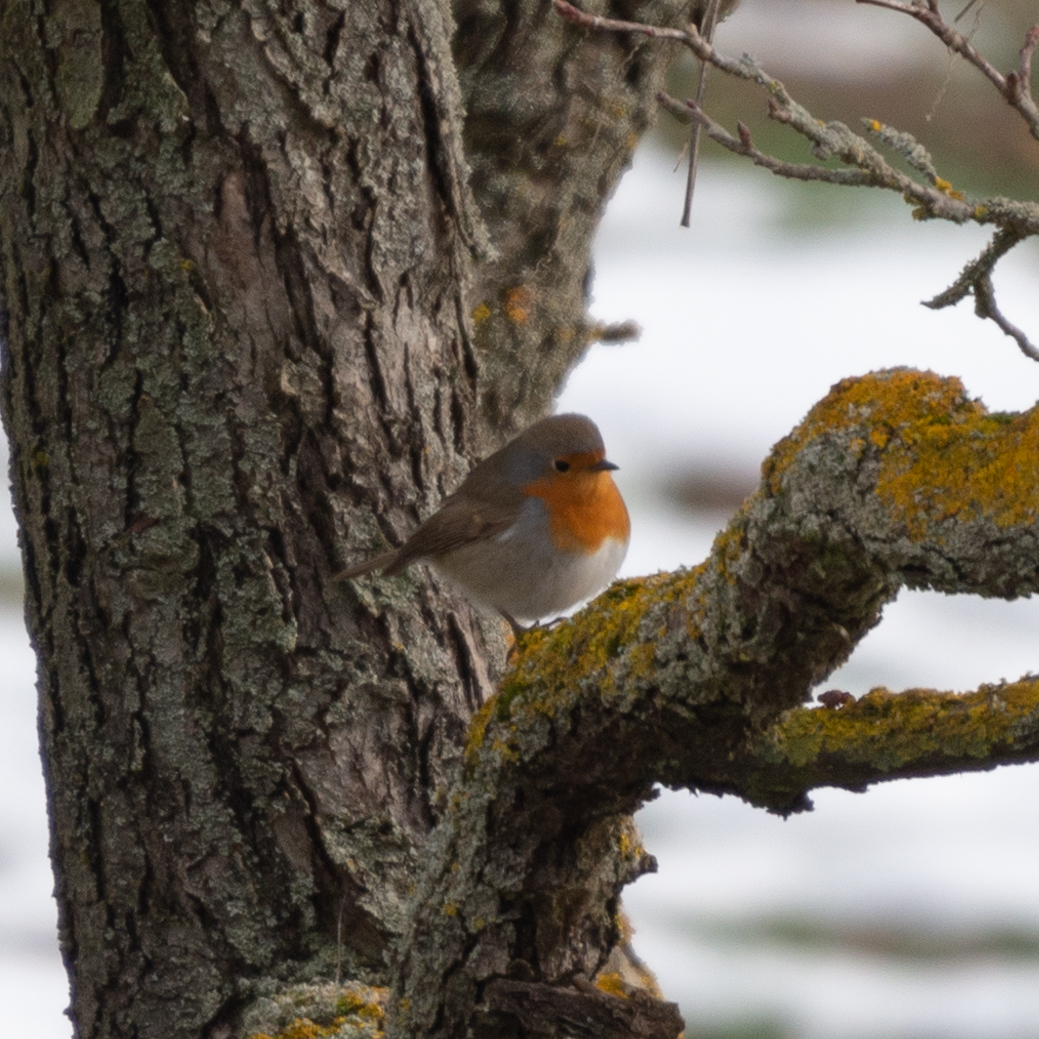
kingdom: Animalia
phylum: Chordata
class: Aves
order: Passeriformes
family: Muscicapidae
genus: Erithacus
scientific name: Erithacus rubecula
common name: European robin
